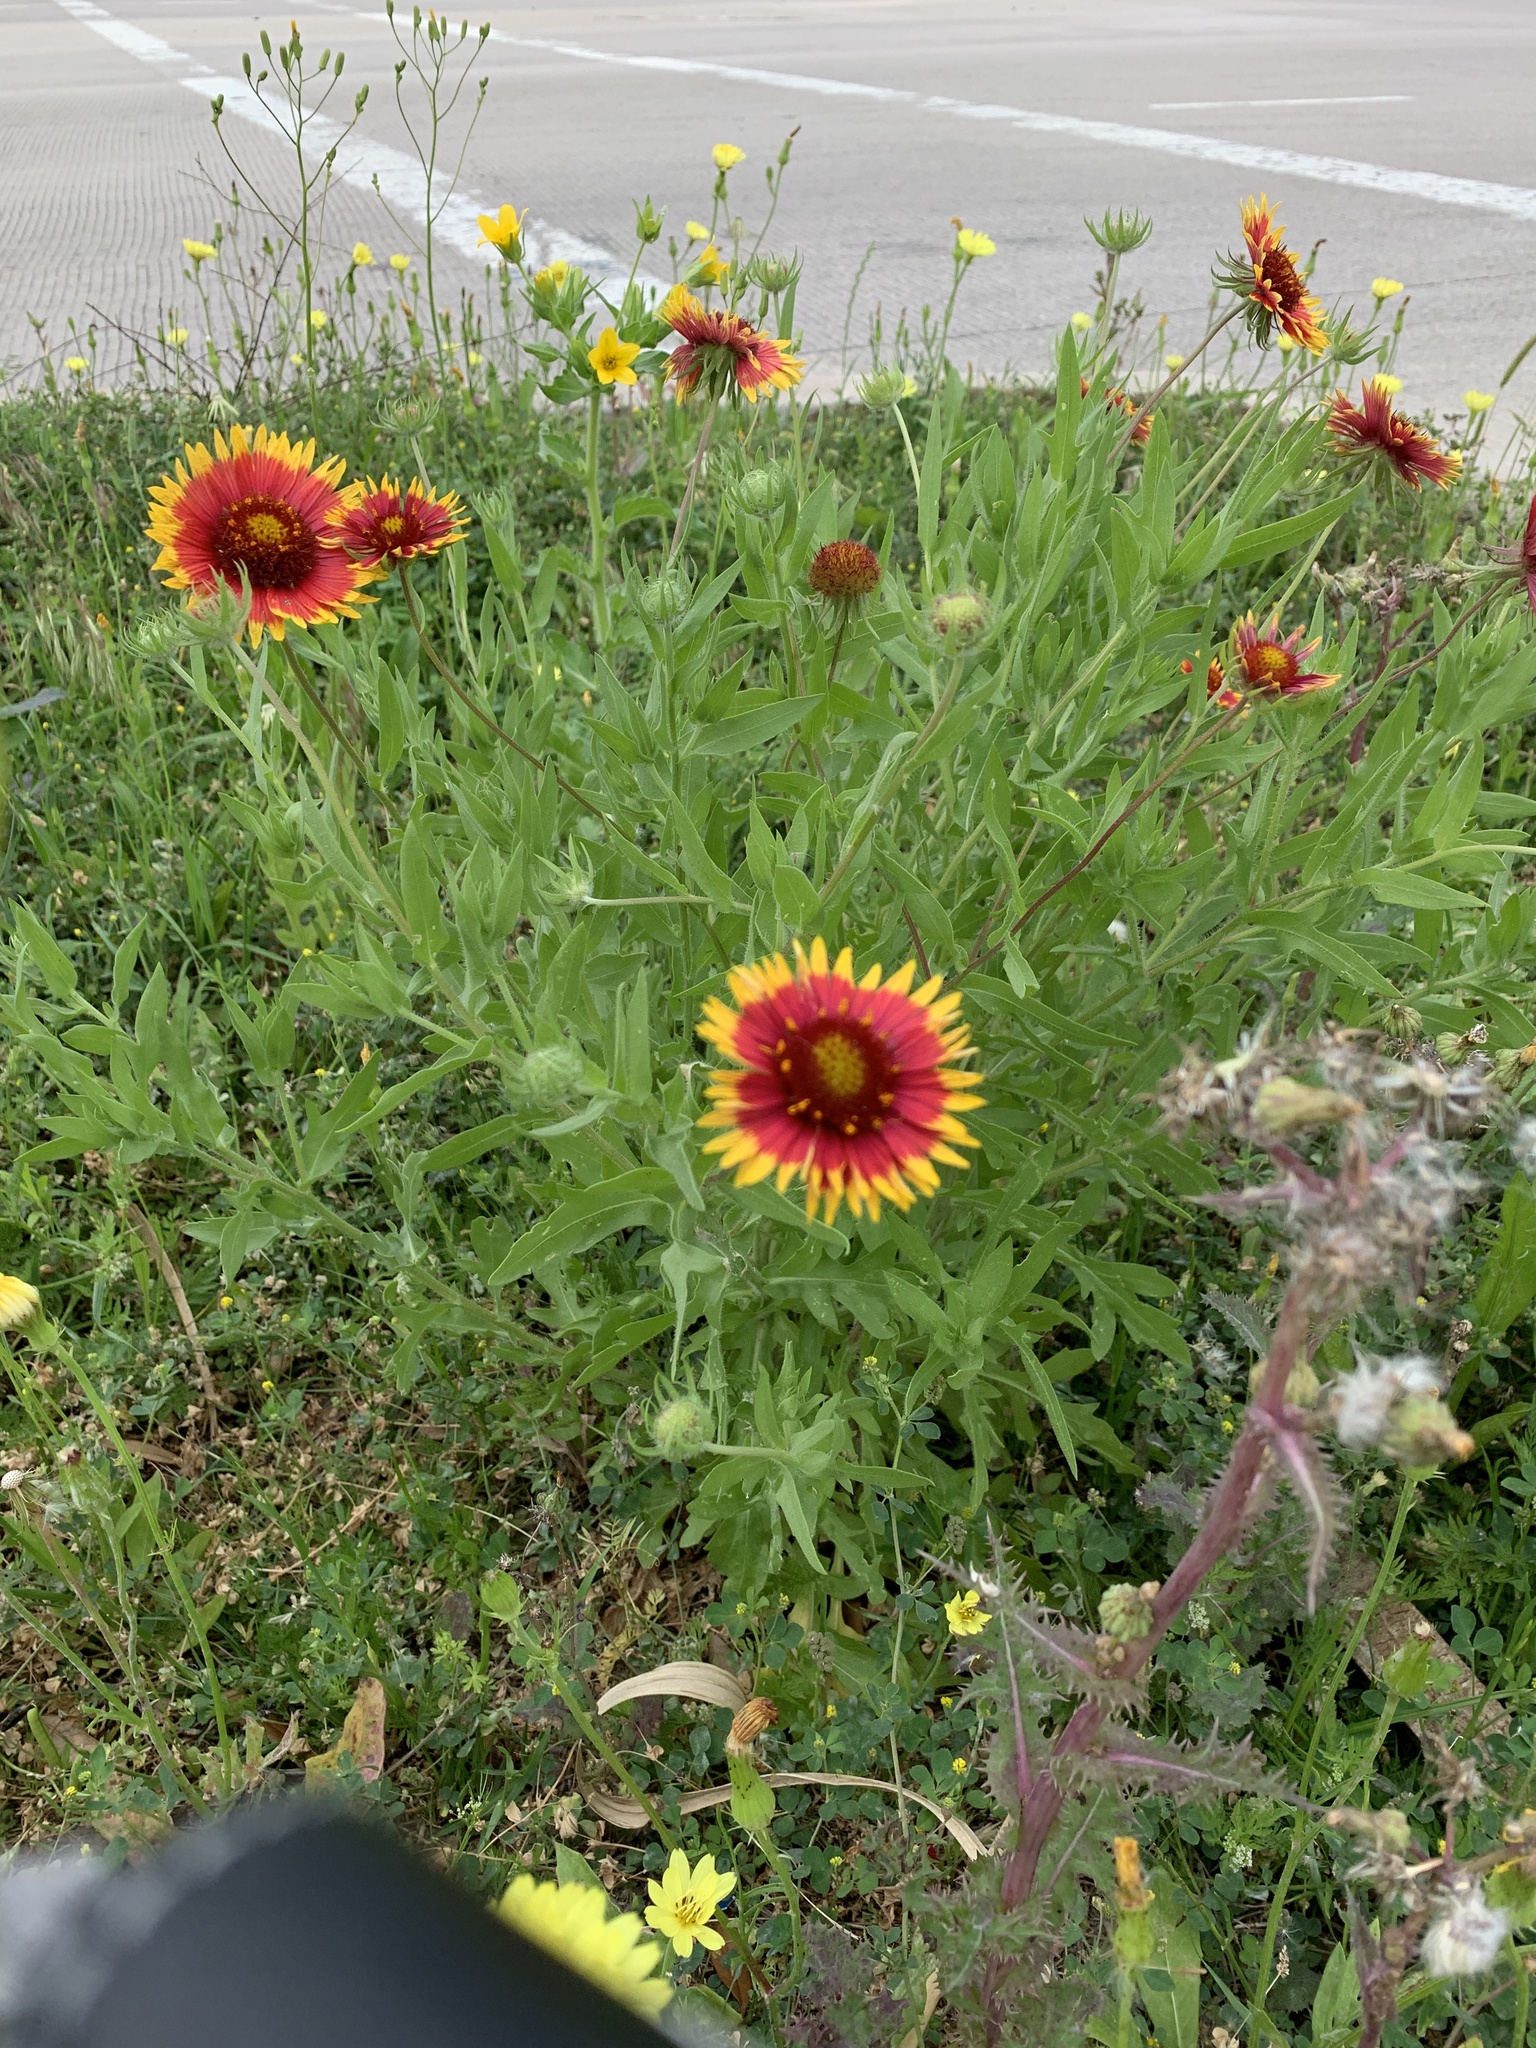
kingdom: Plantae
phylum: Tracheophyta
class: Magnoliopsida
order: Asterales
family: Asteraceae
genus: Gaillardia
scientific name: Gaillardia pulchella
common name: Firewheel
